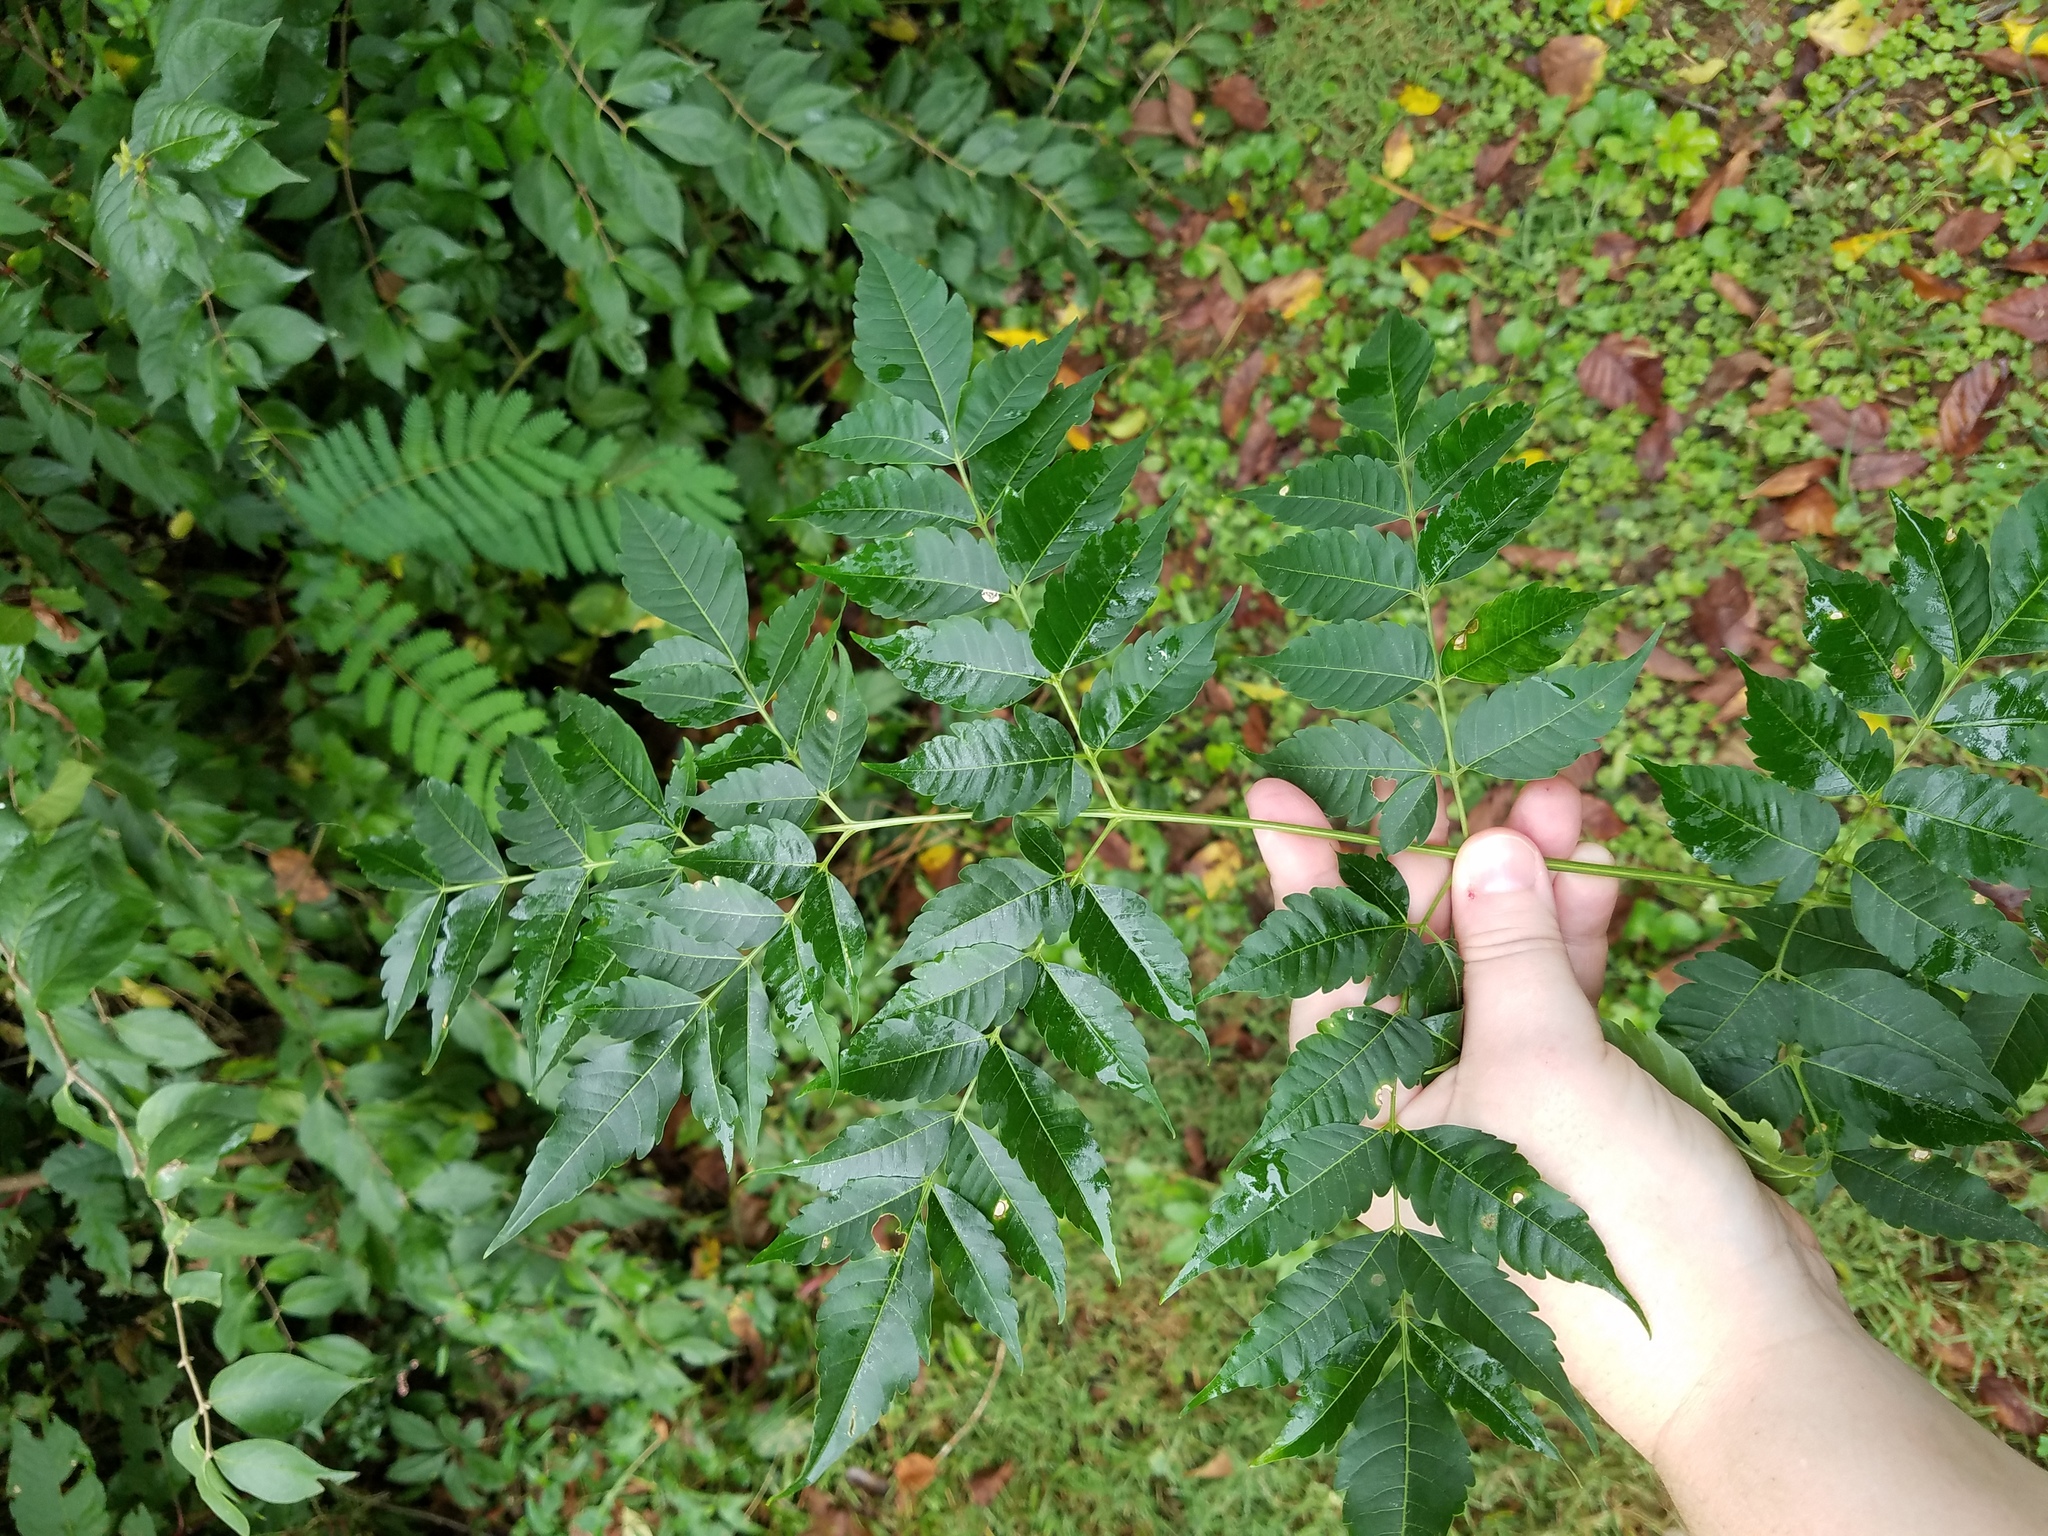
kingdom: Plantae
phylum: Tracheophyta
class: Magnoliopsida
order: Sapindales
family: Meliaceae
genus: Melia
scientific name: Melia azedarach
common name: Chinaberrytree
